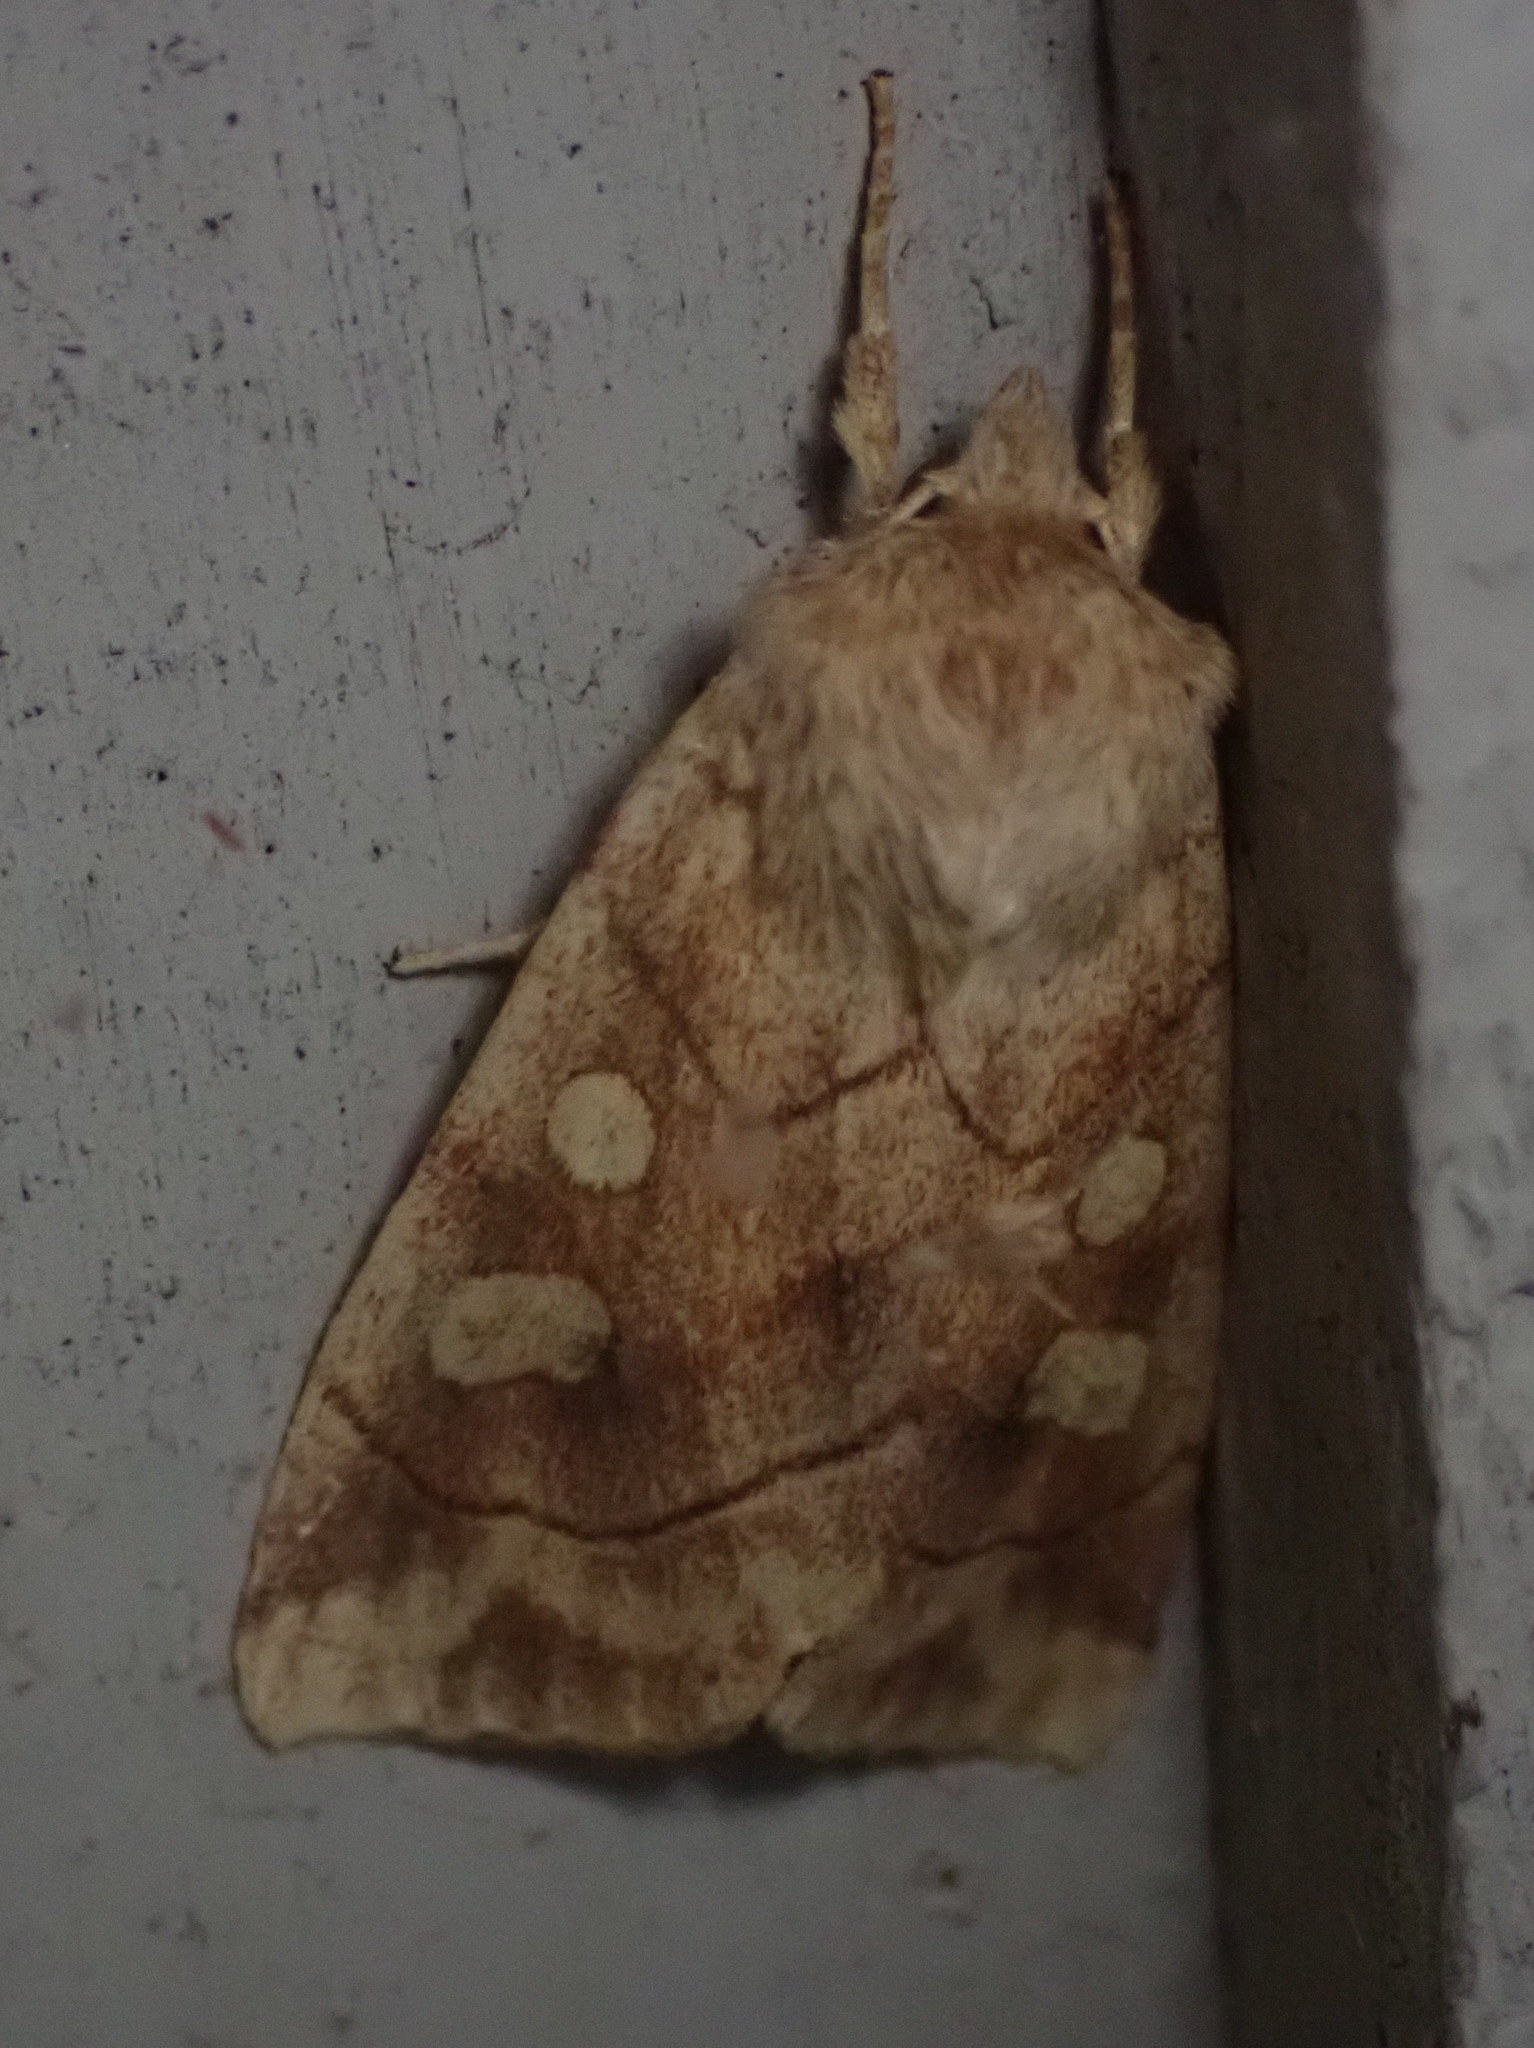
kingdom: Animalia
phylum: Arthropoda
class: Insecta
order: Lepidoptera
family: Noctuidae
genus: Enargia
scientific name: Enargia decolor
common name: Aspen twoleaf tier moth
